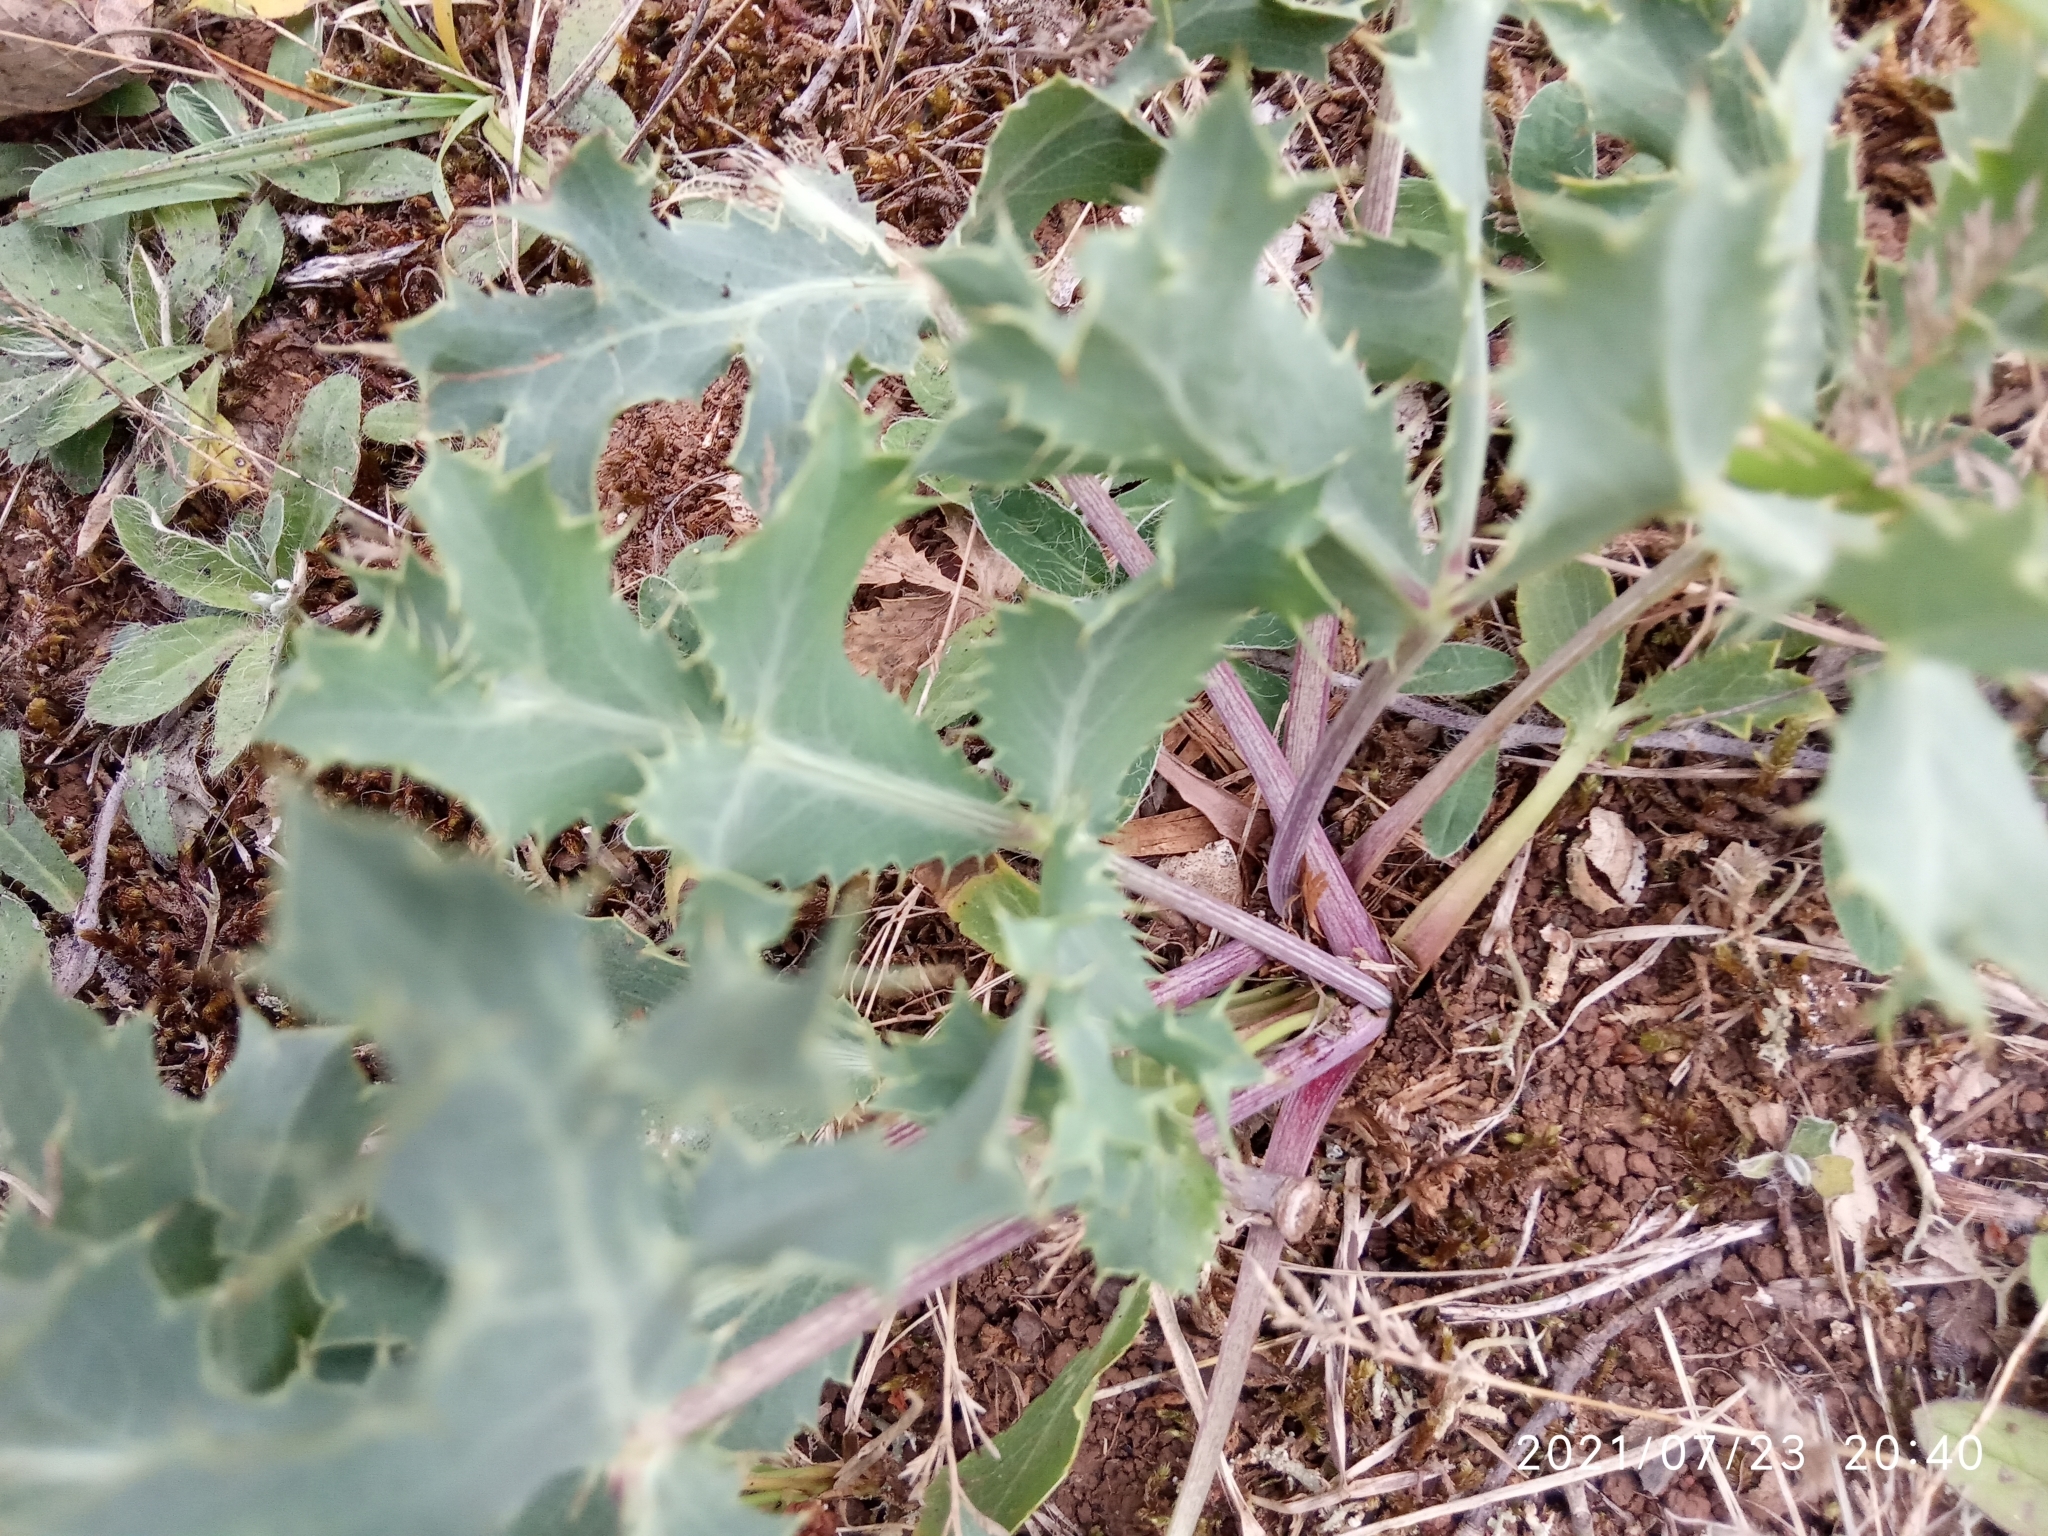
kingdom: Plantae
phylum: Tracheophyta
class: Magnoliopsida
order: Apiales
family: Apiaceae
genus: Eryngium
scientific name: Eryngium campestre
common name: Field eryngo
